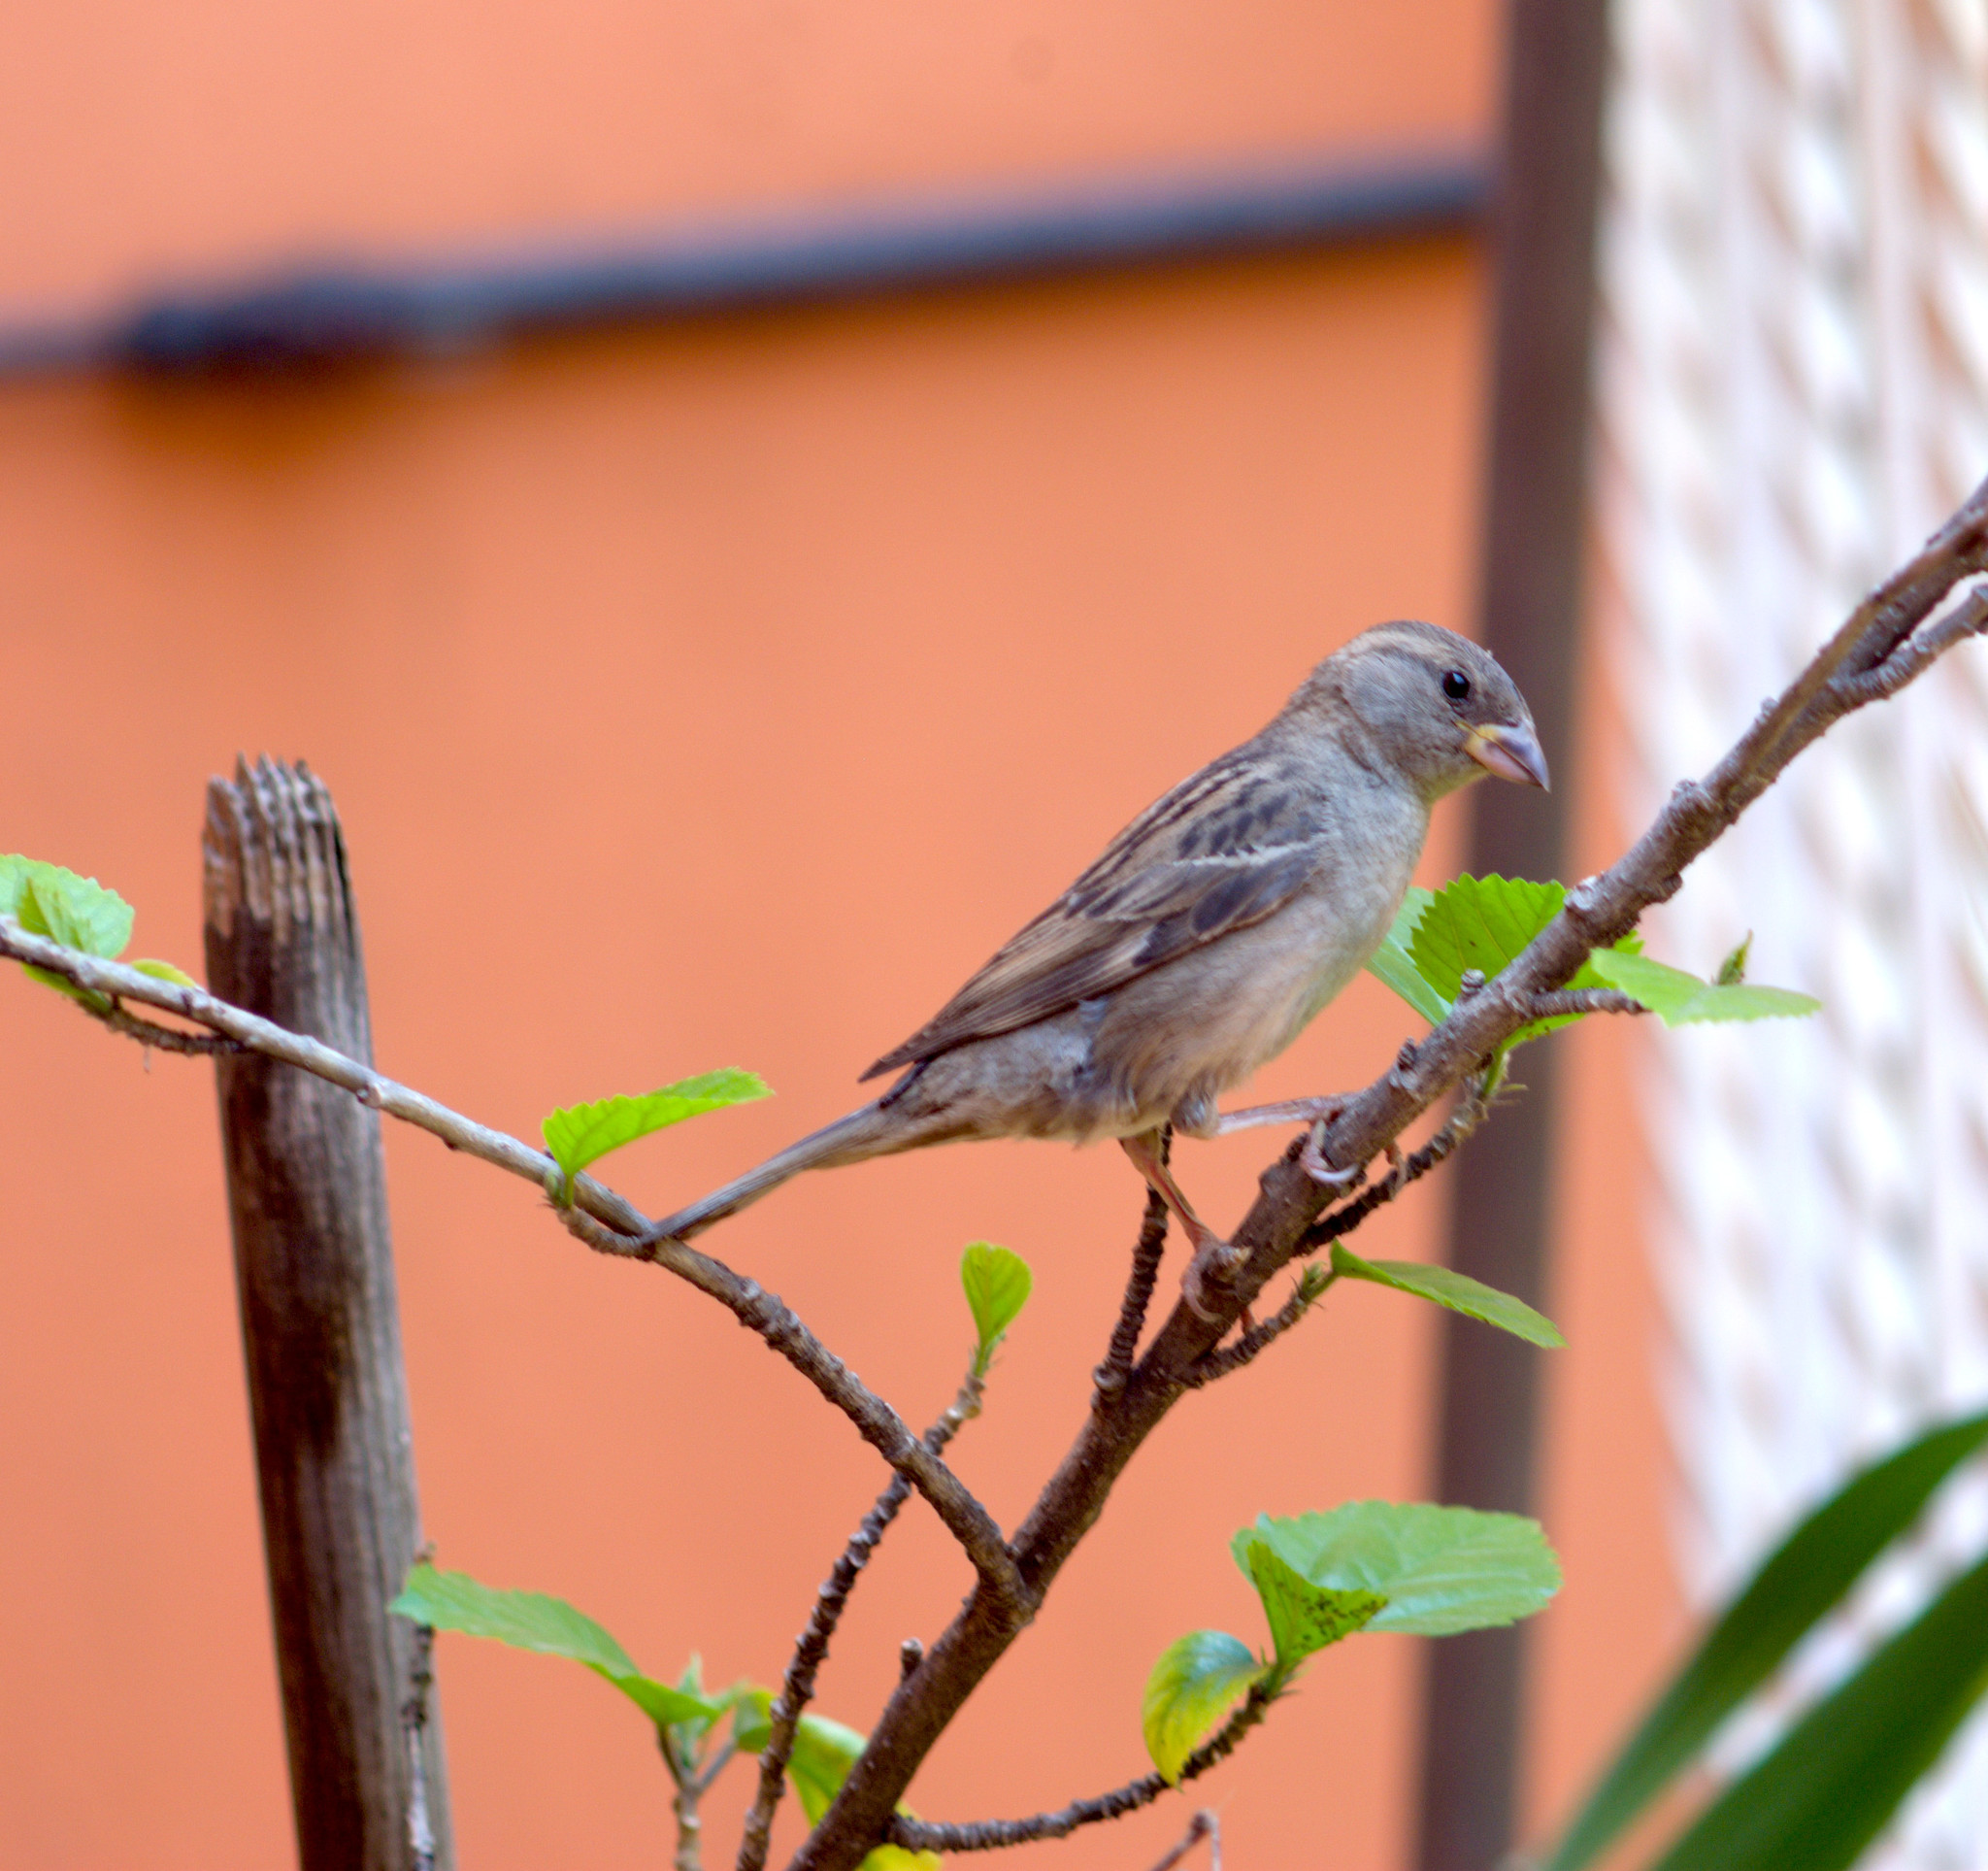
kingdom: Animalia
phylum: Chordata
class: Aves
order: Passeriformes
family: Passeridae
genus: Passer
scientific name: Passer domesticus
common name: House sparrow
